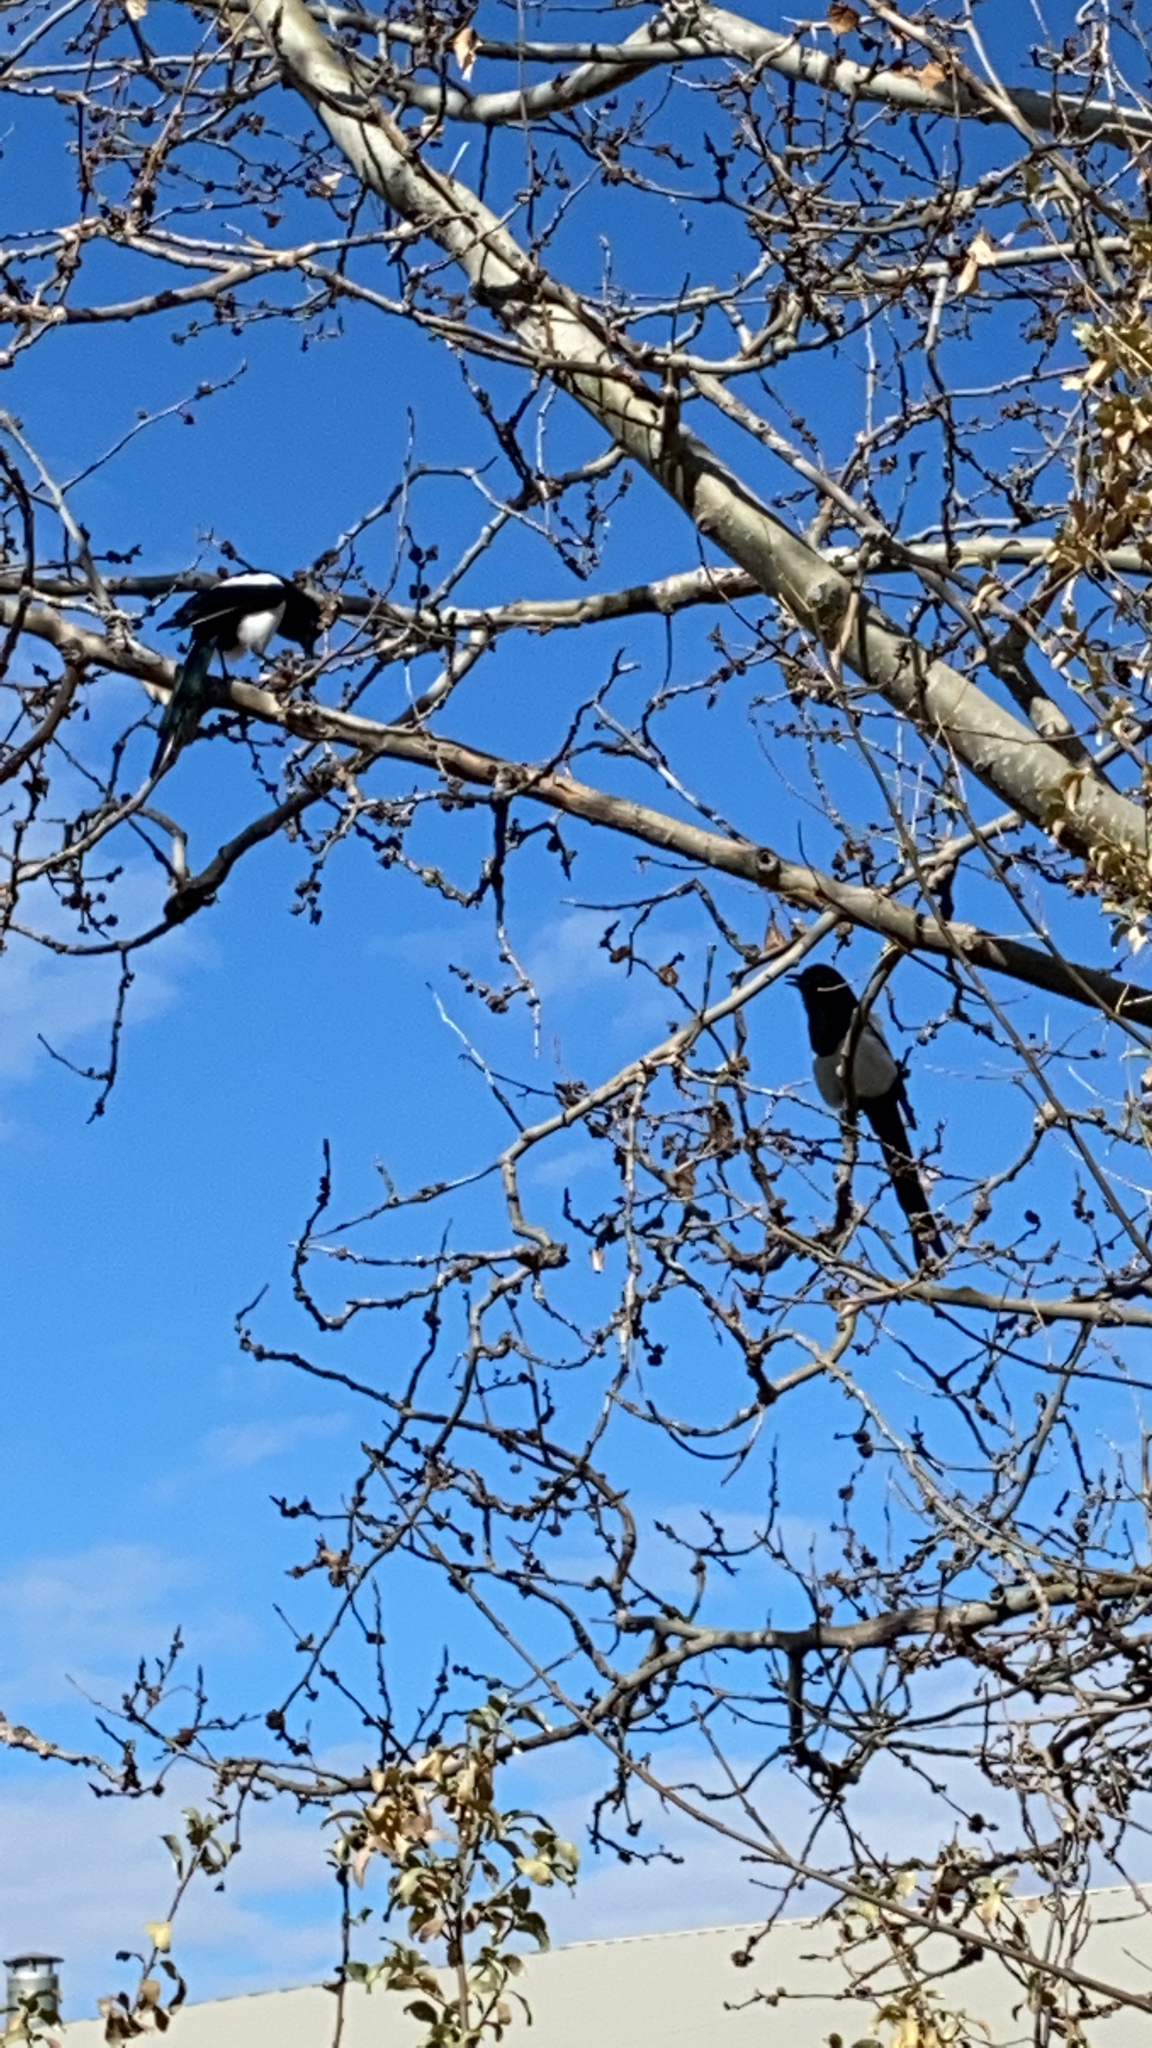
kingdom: Animalia
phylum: Chordata
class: Aves
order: Passeriformes
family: Corvidae
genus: Pica
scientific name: Pica hudsonia
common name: Black-billed magpie
